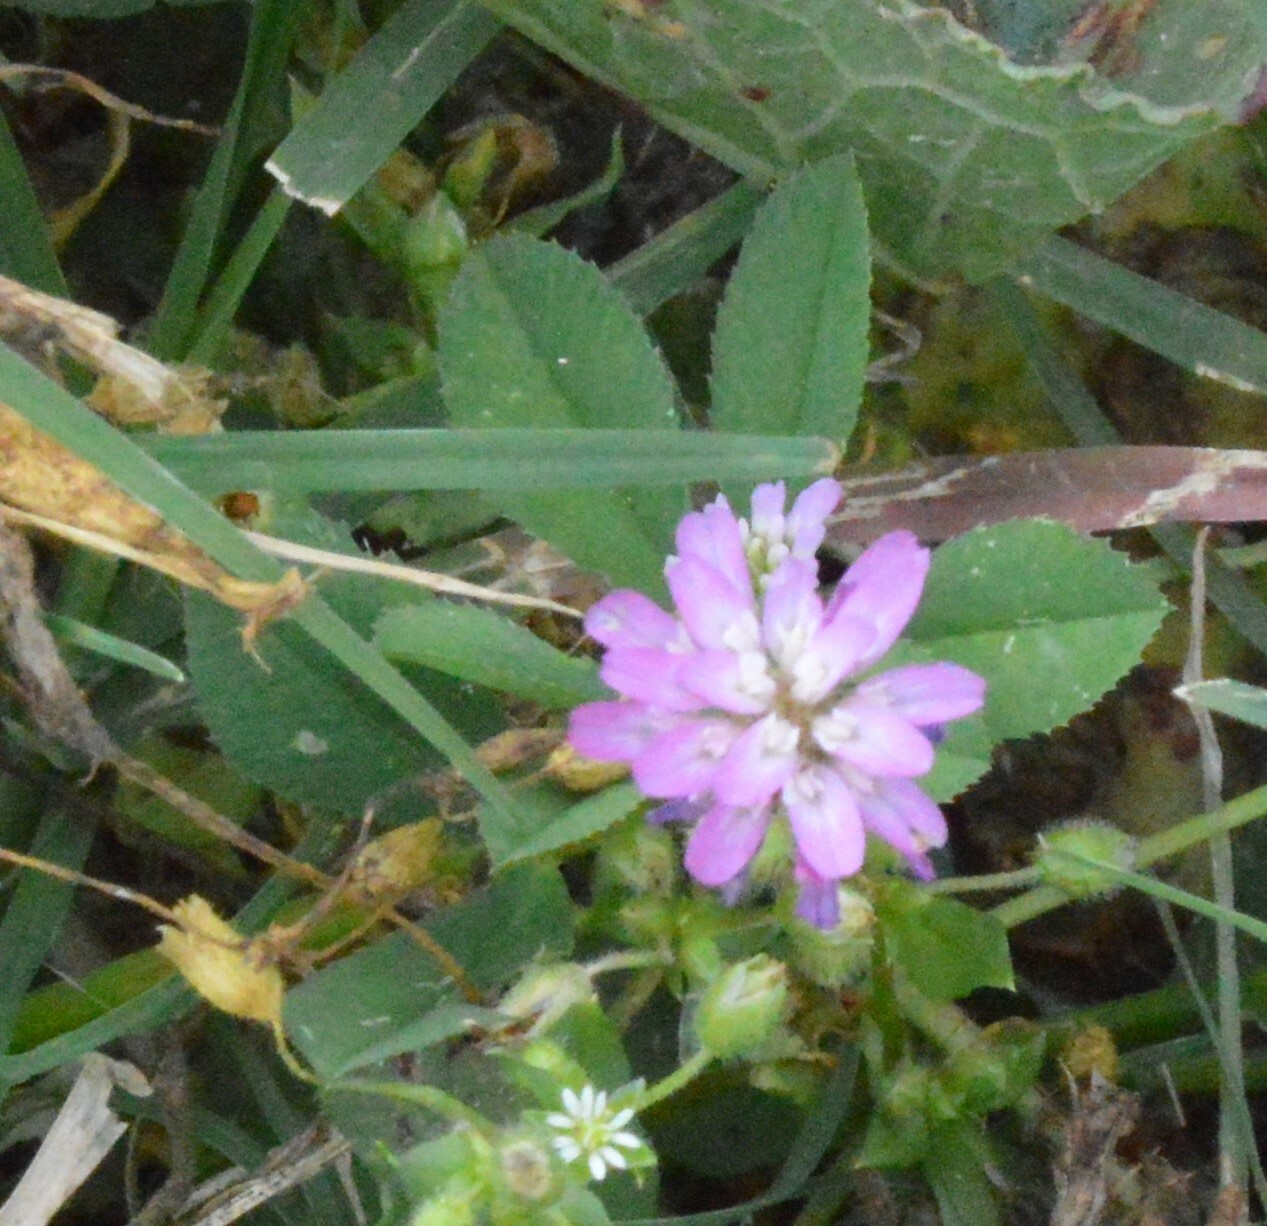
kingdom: Plantae
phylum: Tracheophyta
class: Magnoliopsida
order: Fabales
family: Fabaceae
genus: Trifolium
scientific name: Trifolium resupinatum
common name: Reversed clover
